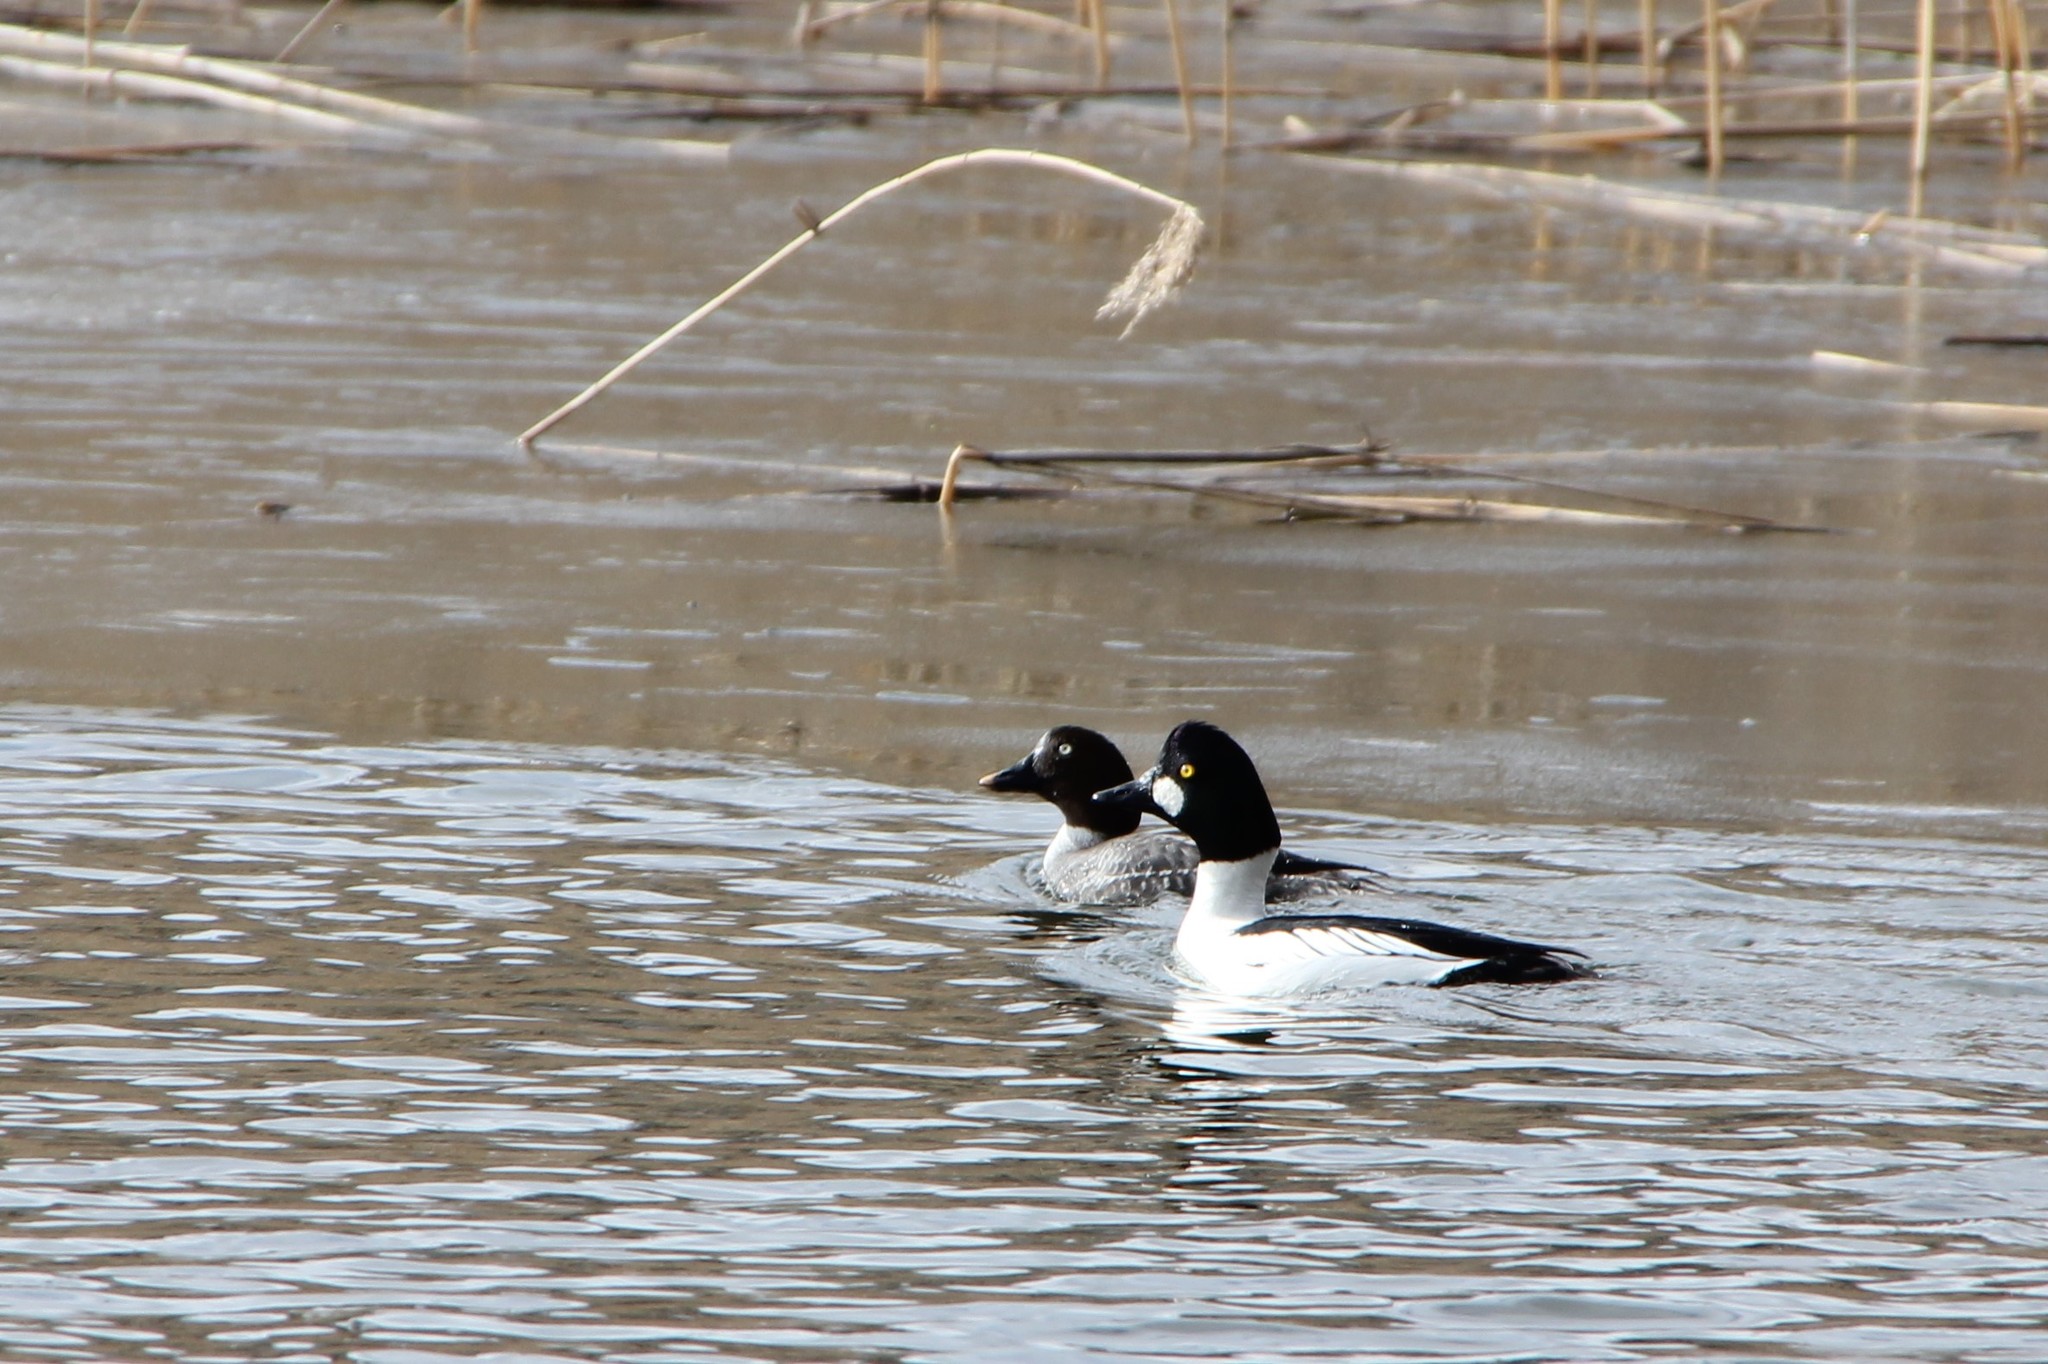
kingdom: Animalia
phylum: Chordata
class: Aves
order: Anseriformes
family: Anatidae
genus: Bucephala
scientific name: Bucephala clangula
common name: Common goldeneye
